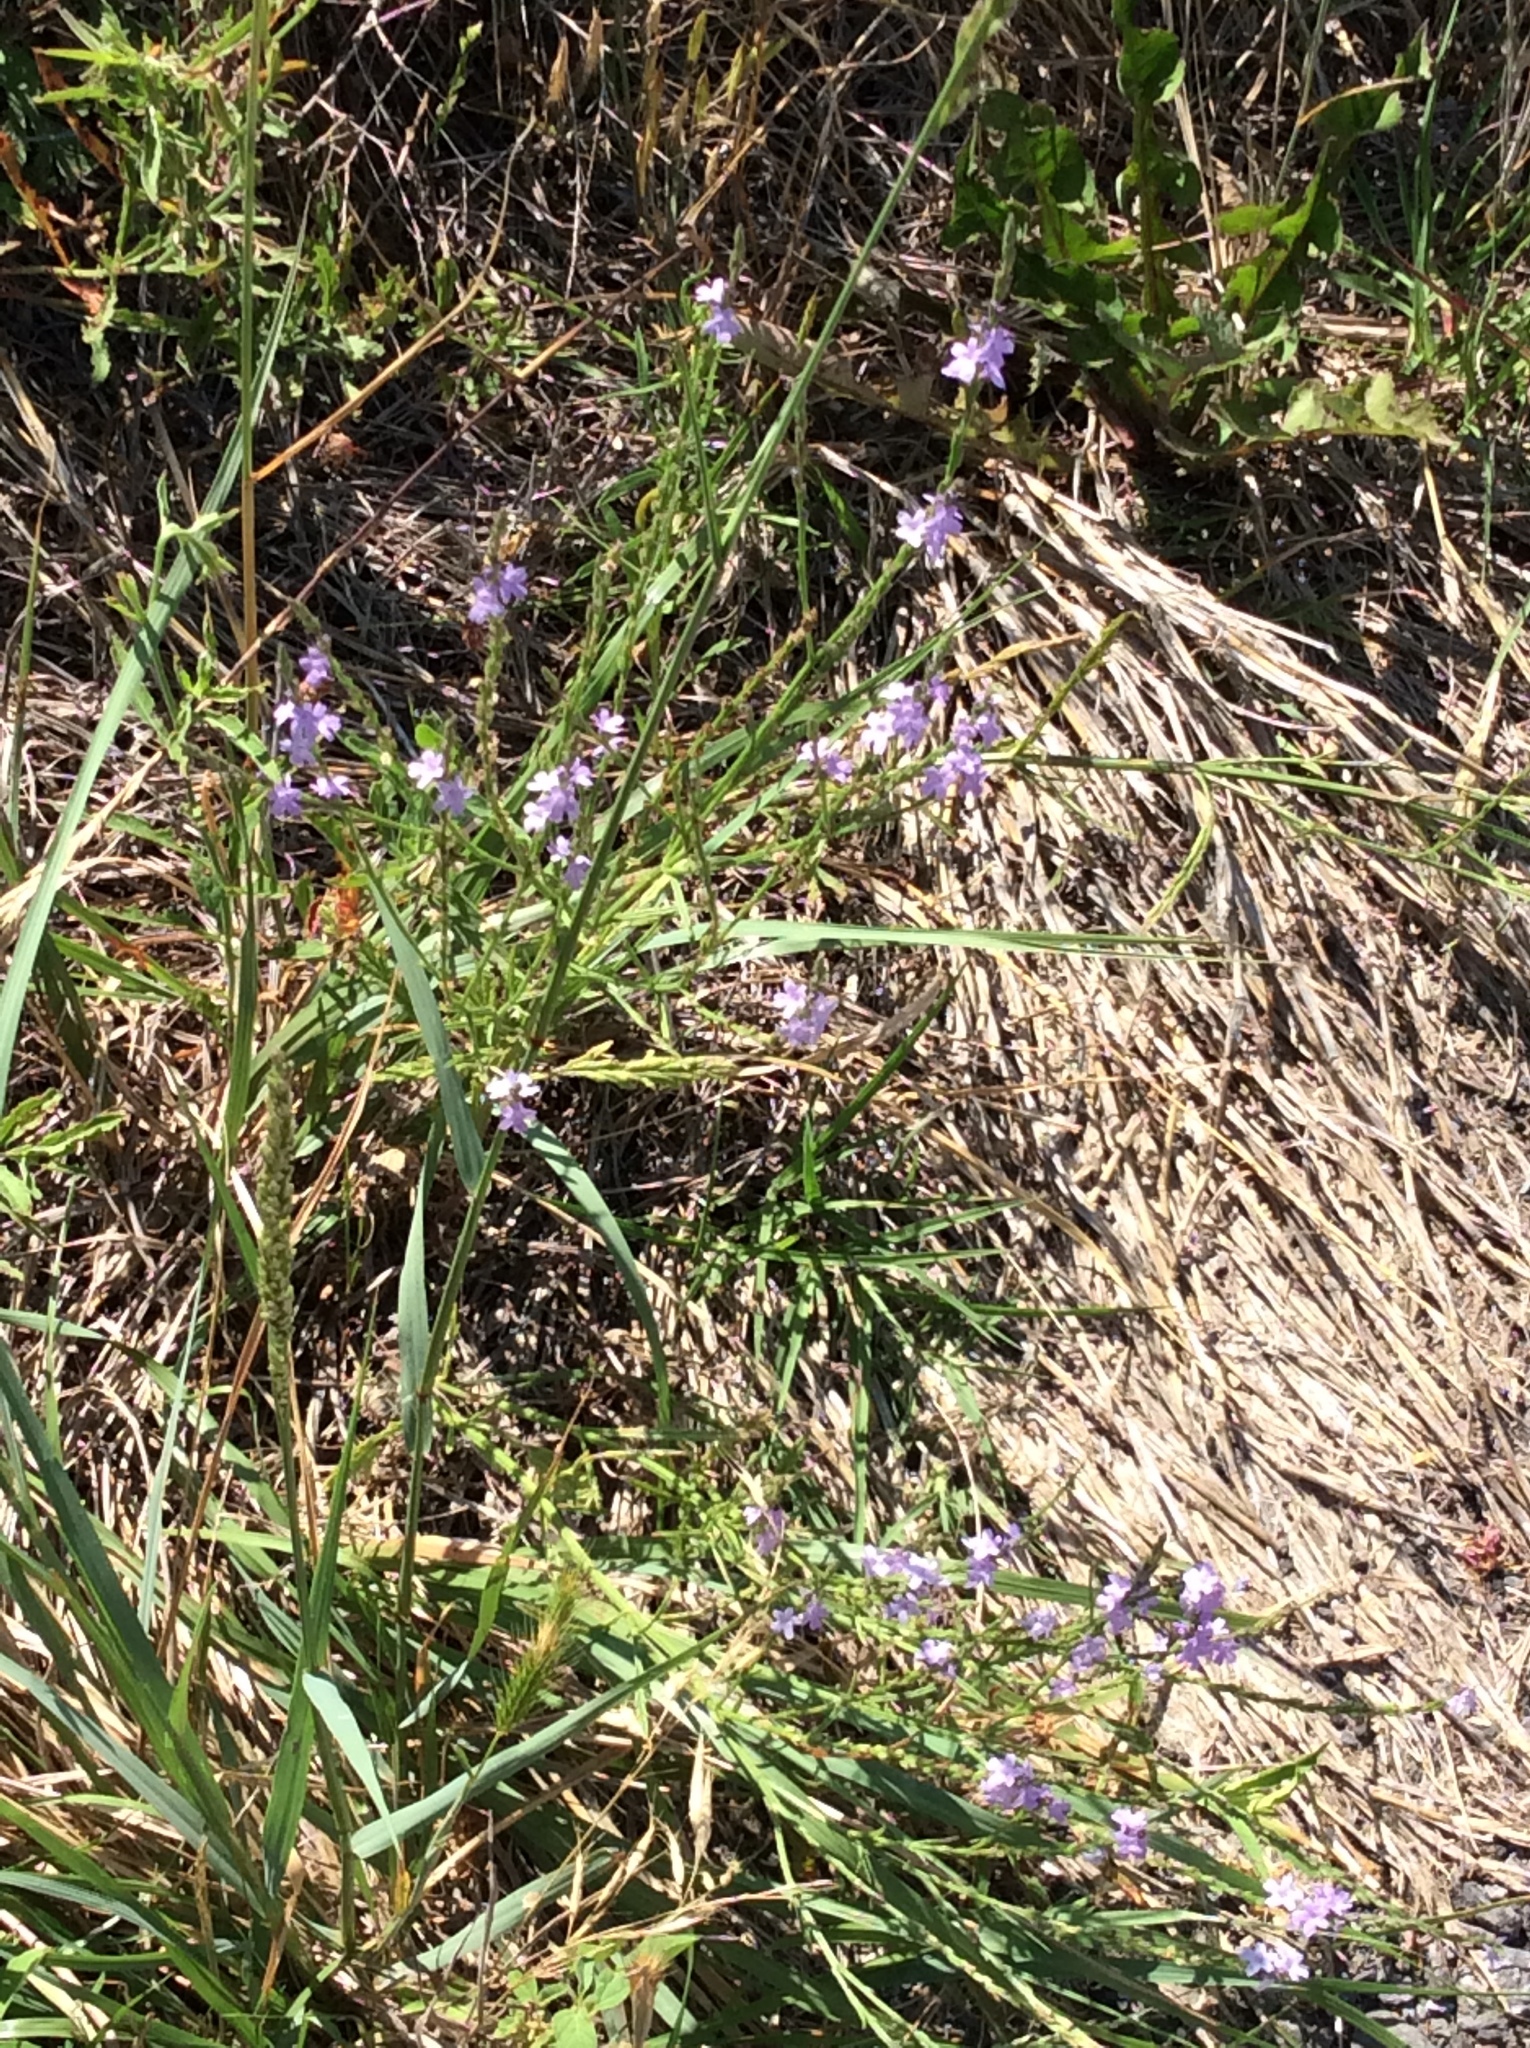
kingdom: Plantae
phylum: Tracheophyta
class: Magnoliopsida
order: Lamiales
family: Verbenaceae
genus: Verbena
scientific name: Verbena halei
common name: Texas vervain
